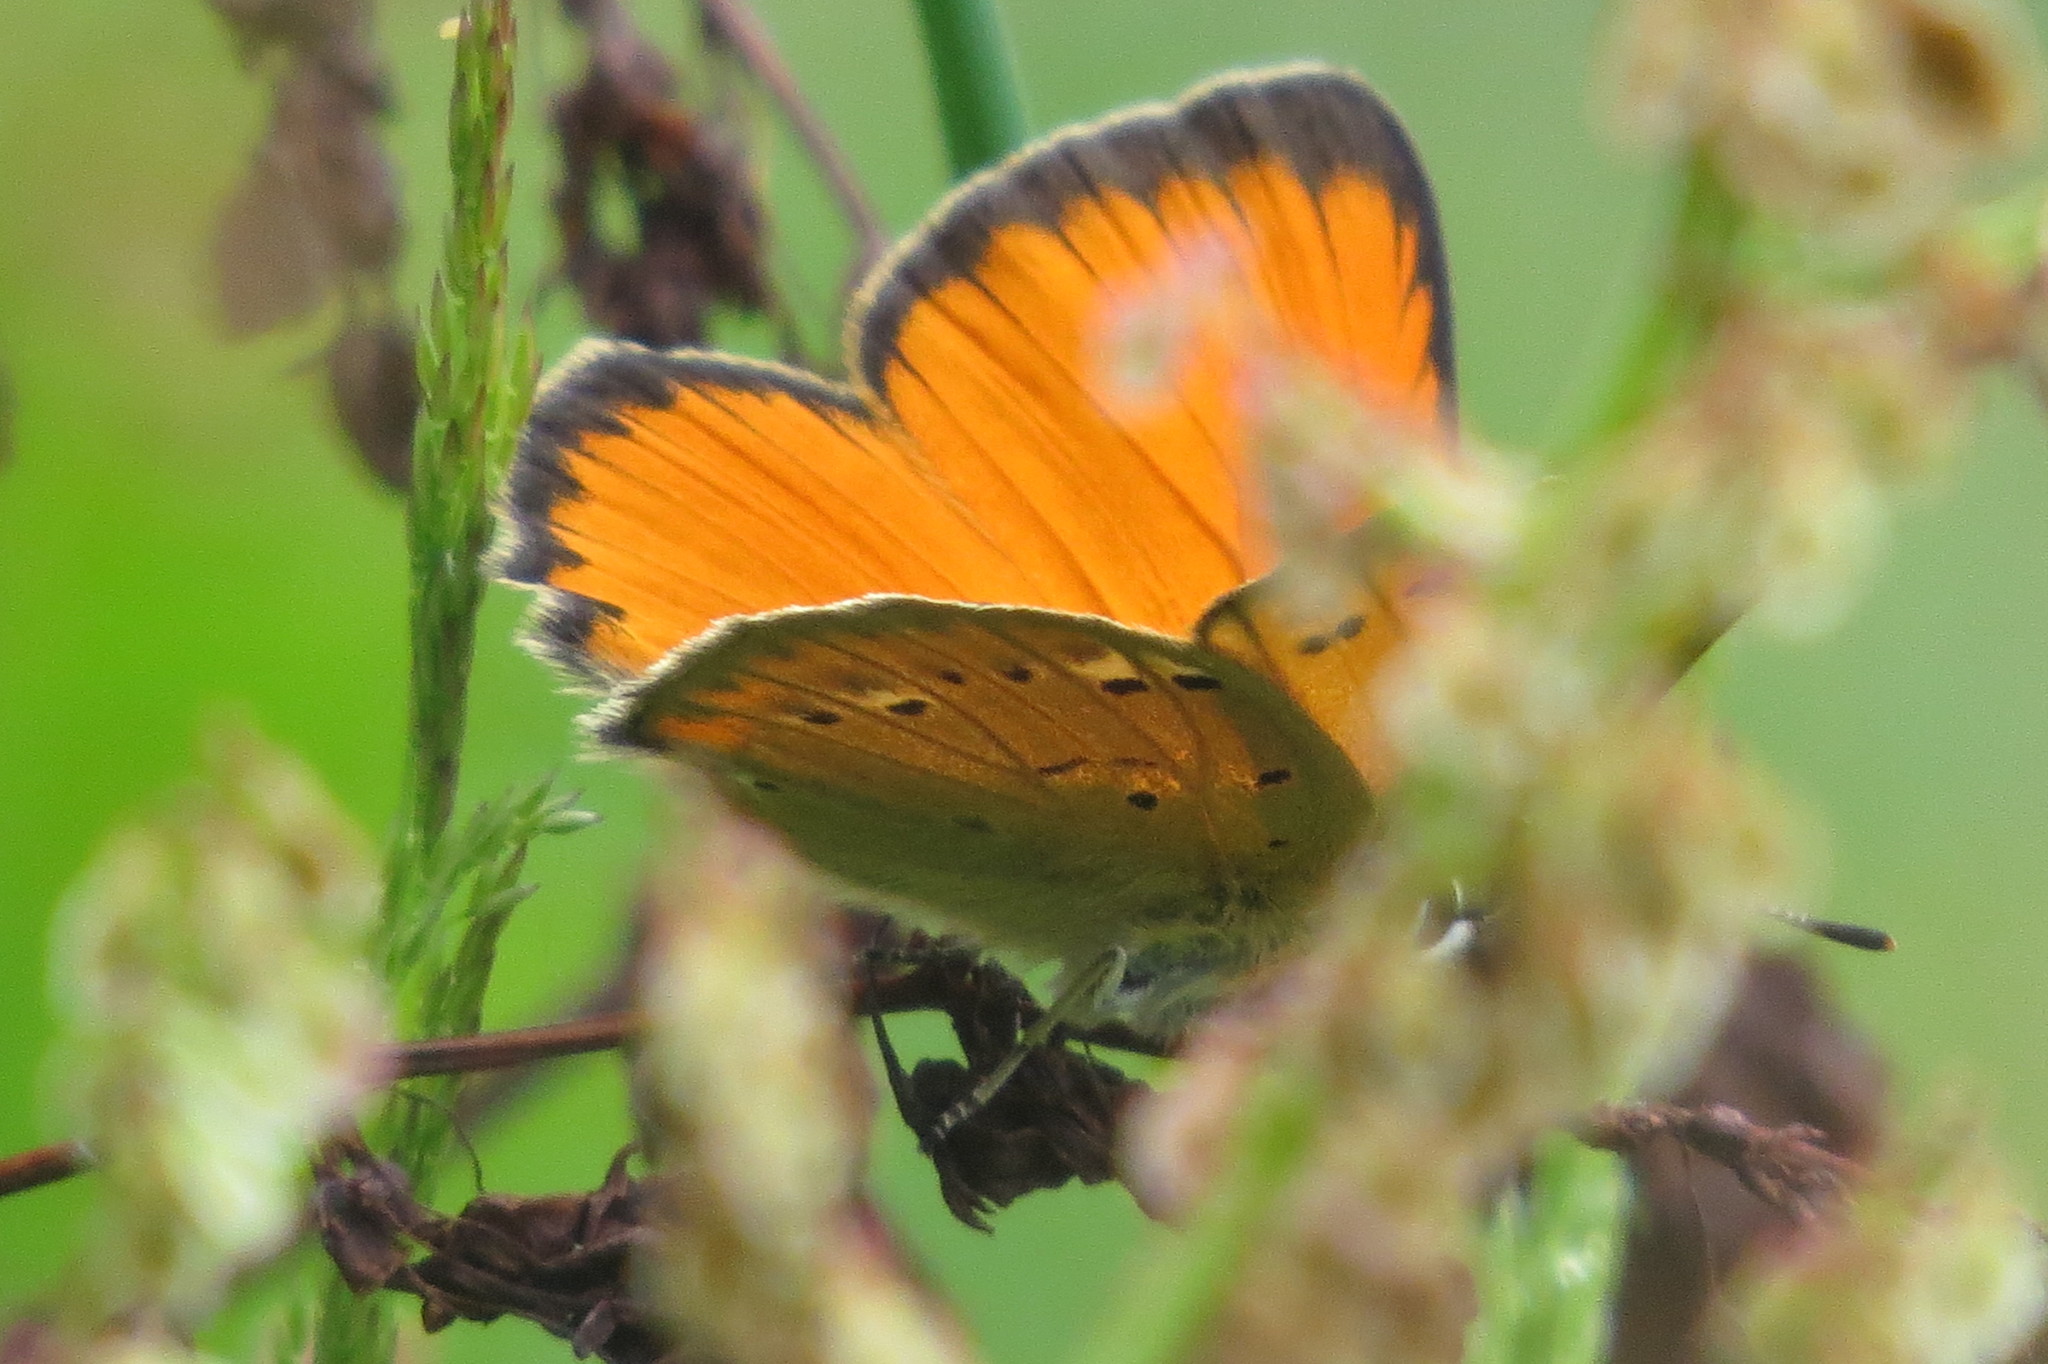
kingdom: Animalia
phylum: Arthropoda
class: Insecta
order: Lepidoptera
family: Lycaenidae
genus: Lycaena
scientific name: Lycaena virgaureae
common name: Scarce copper
